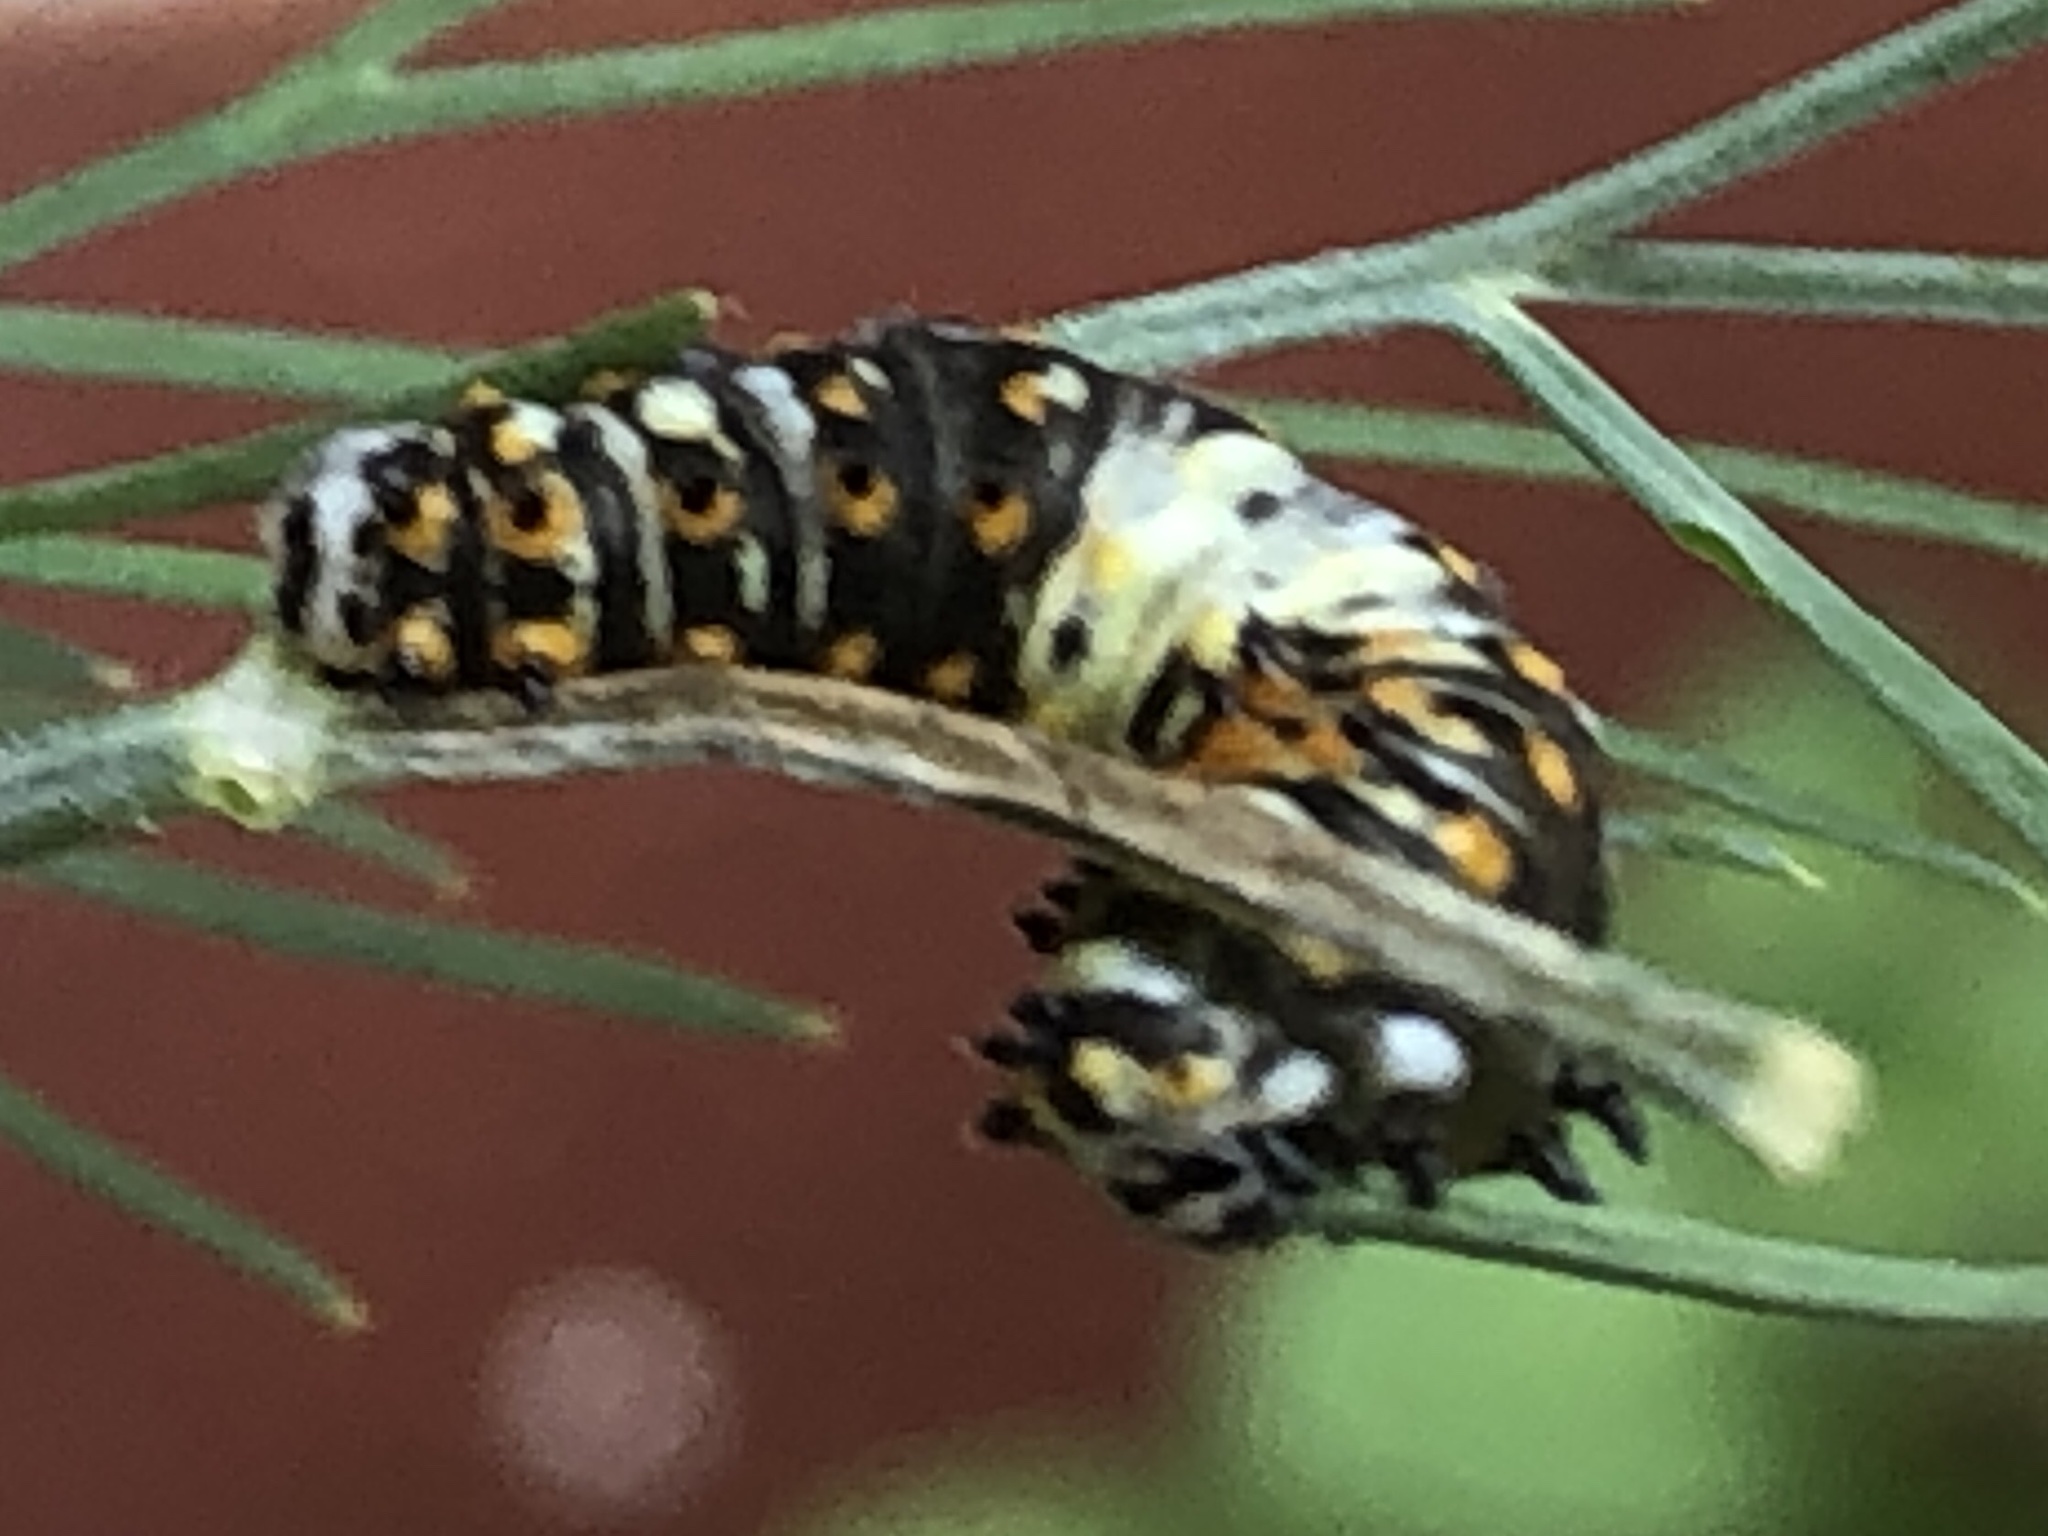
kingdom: Animalia
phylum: Arthropoda
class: Insecta
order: Lepidoptera
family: Papilionidae
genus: Papilio
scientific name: Papilio polyxenes
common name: Black swallowtail
